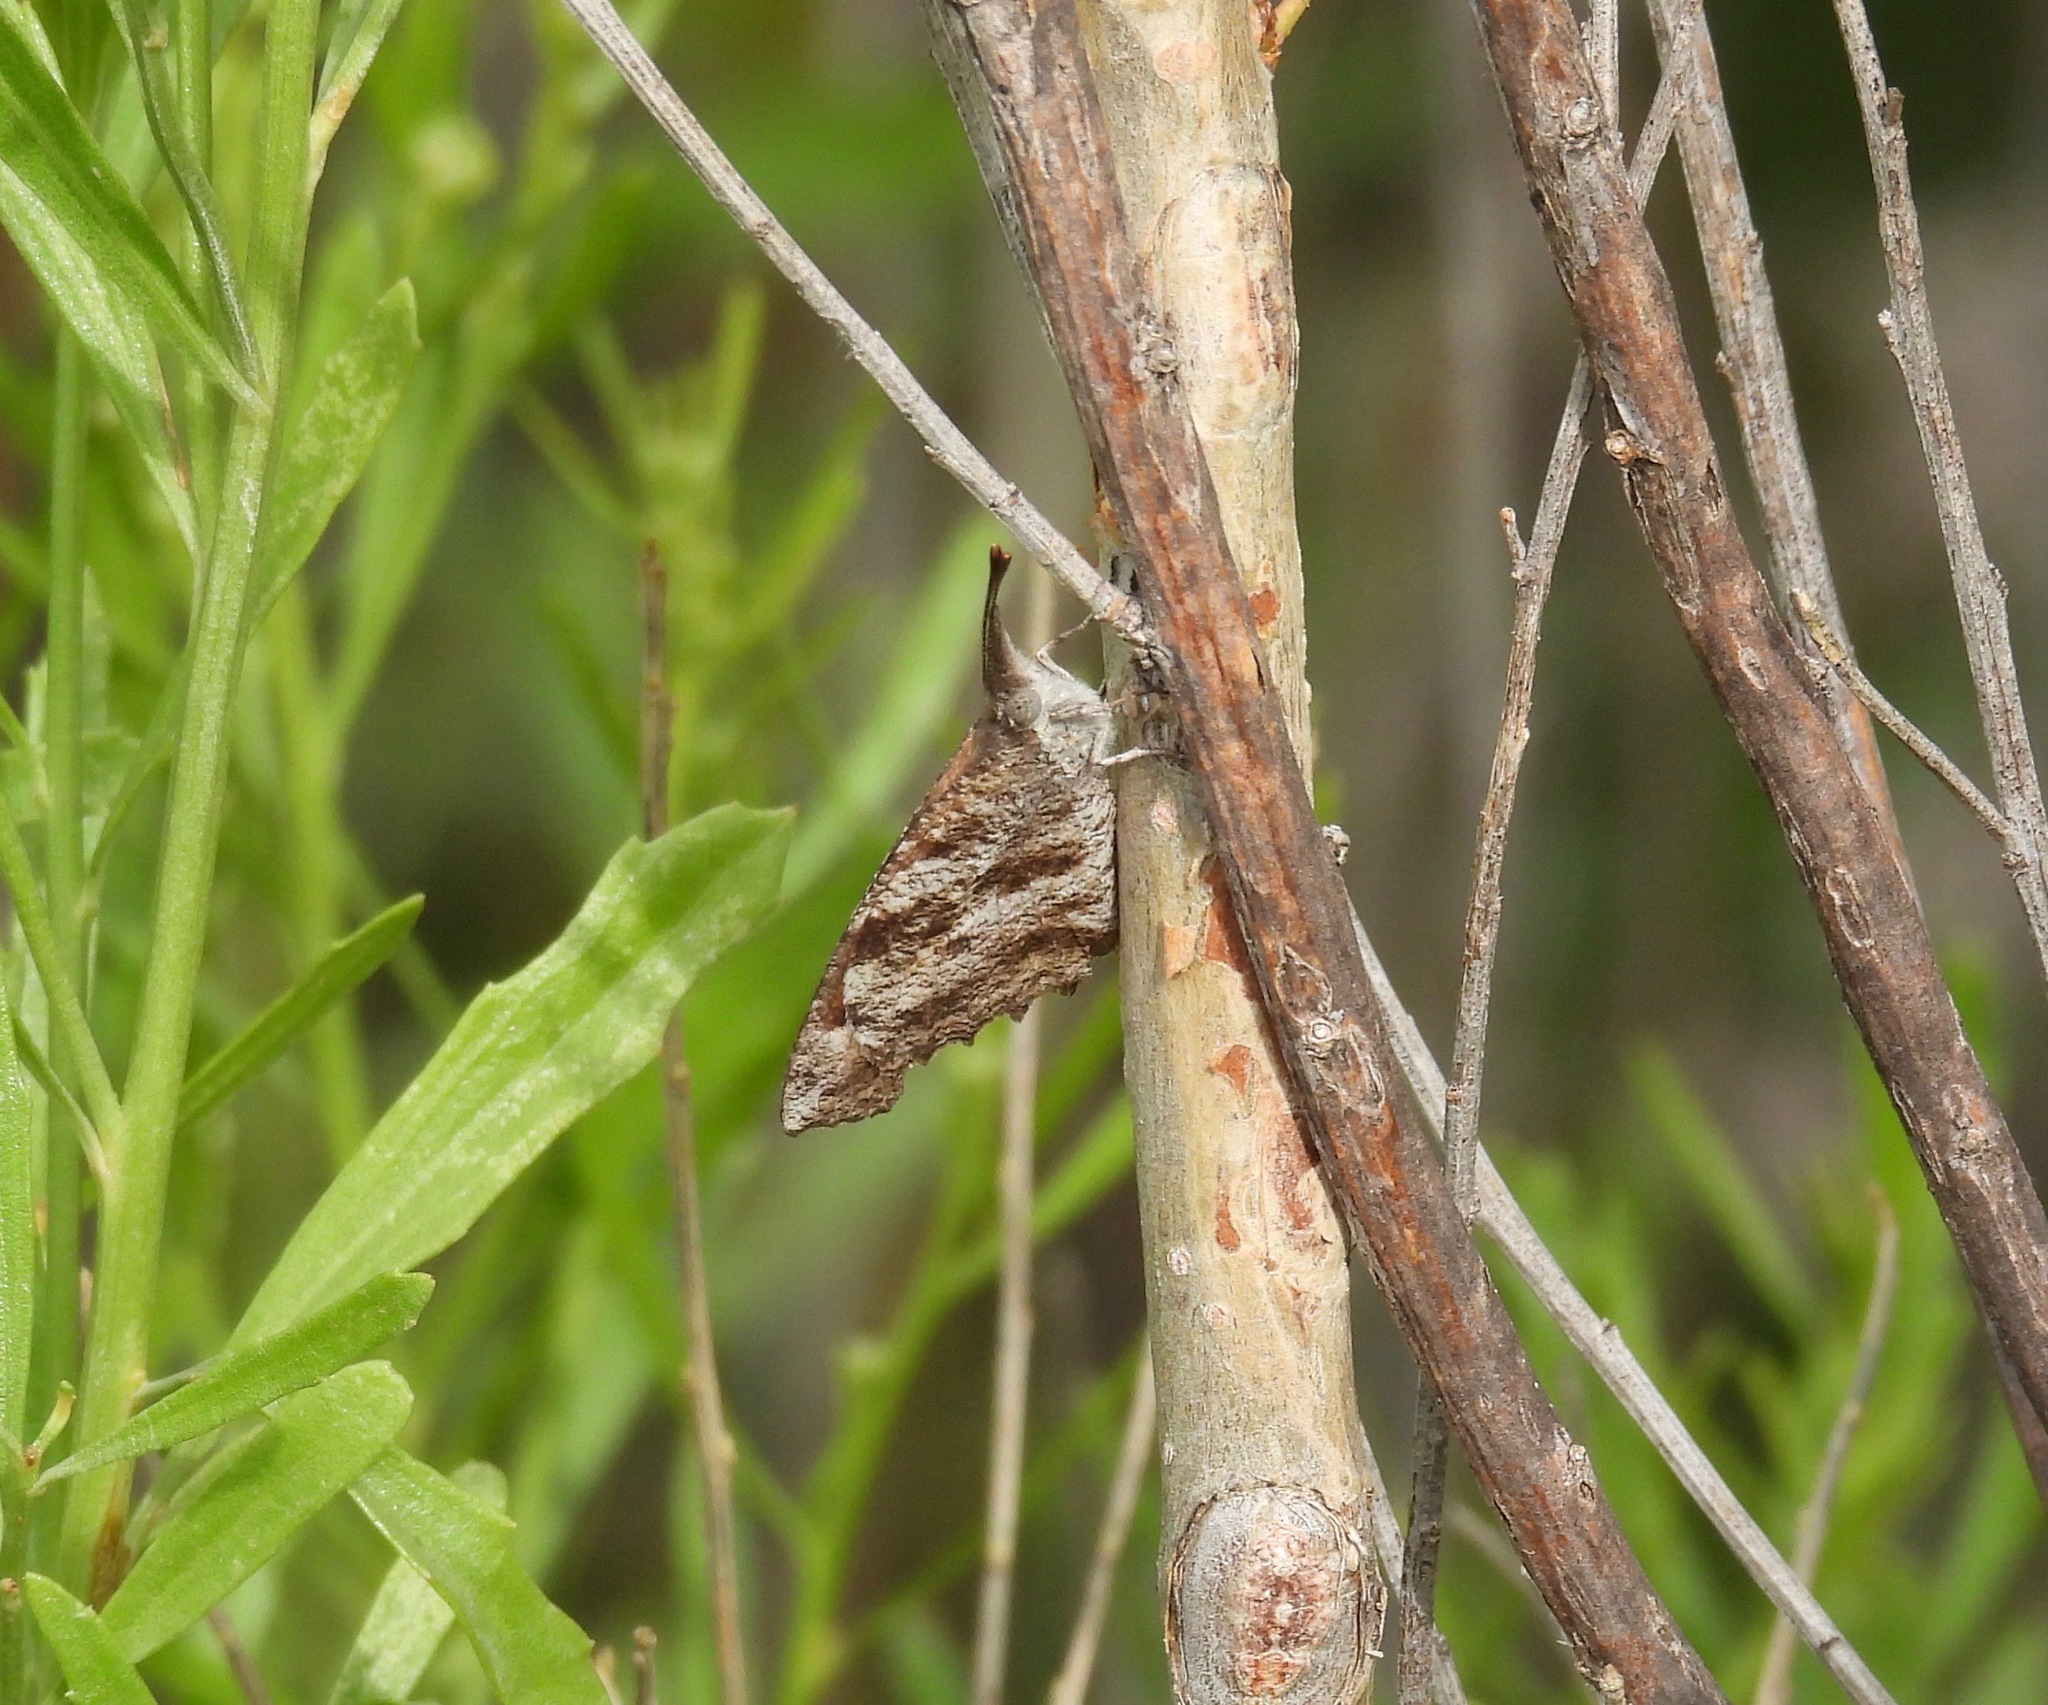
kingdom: Animalia
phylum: Arthropoda
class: Insecta
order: Lepidoptera
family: Nymphalidae
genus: Libytheana
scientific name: Libytheana carinenta
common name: American snout
